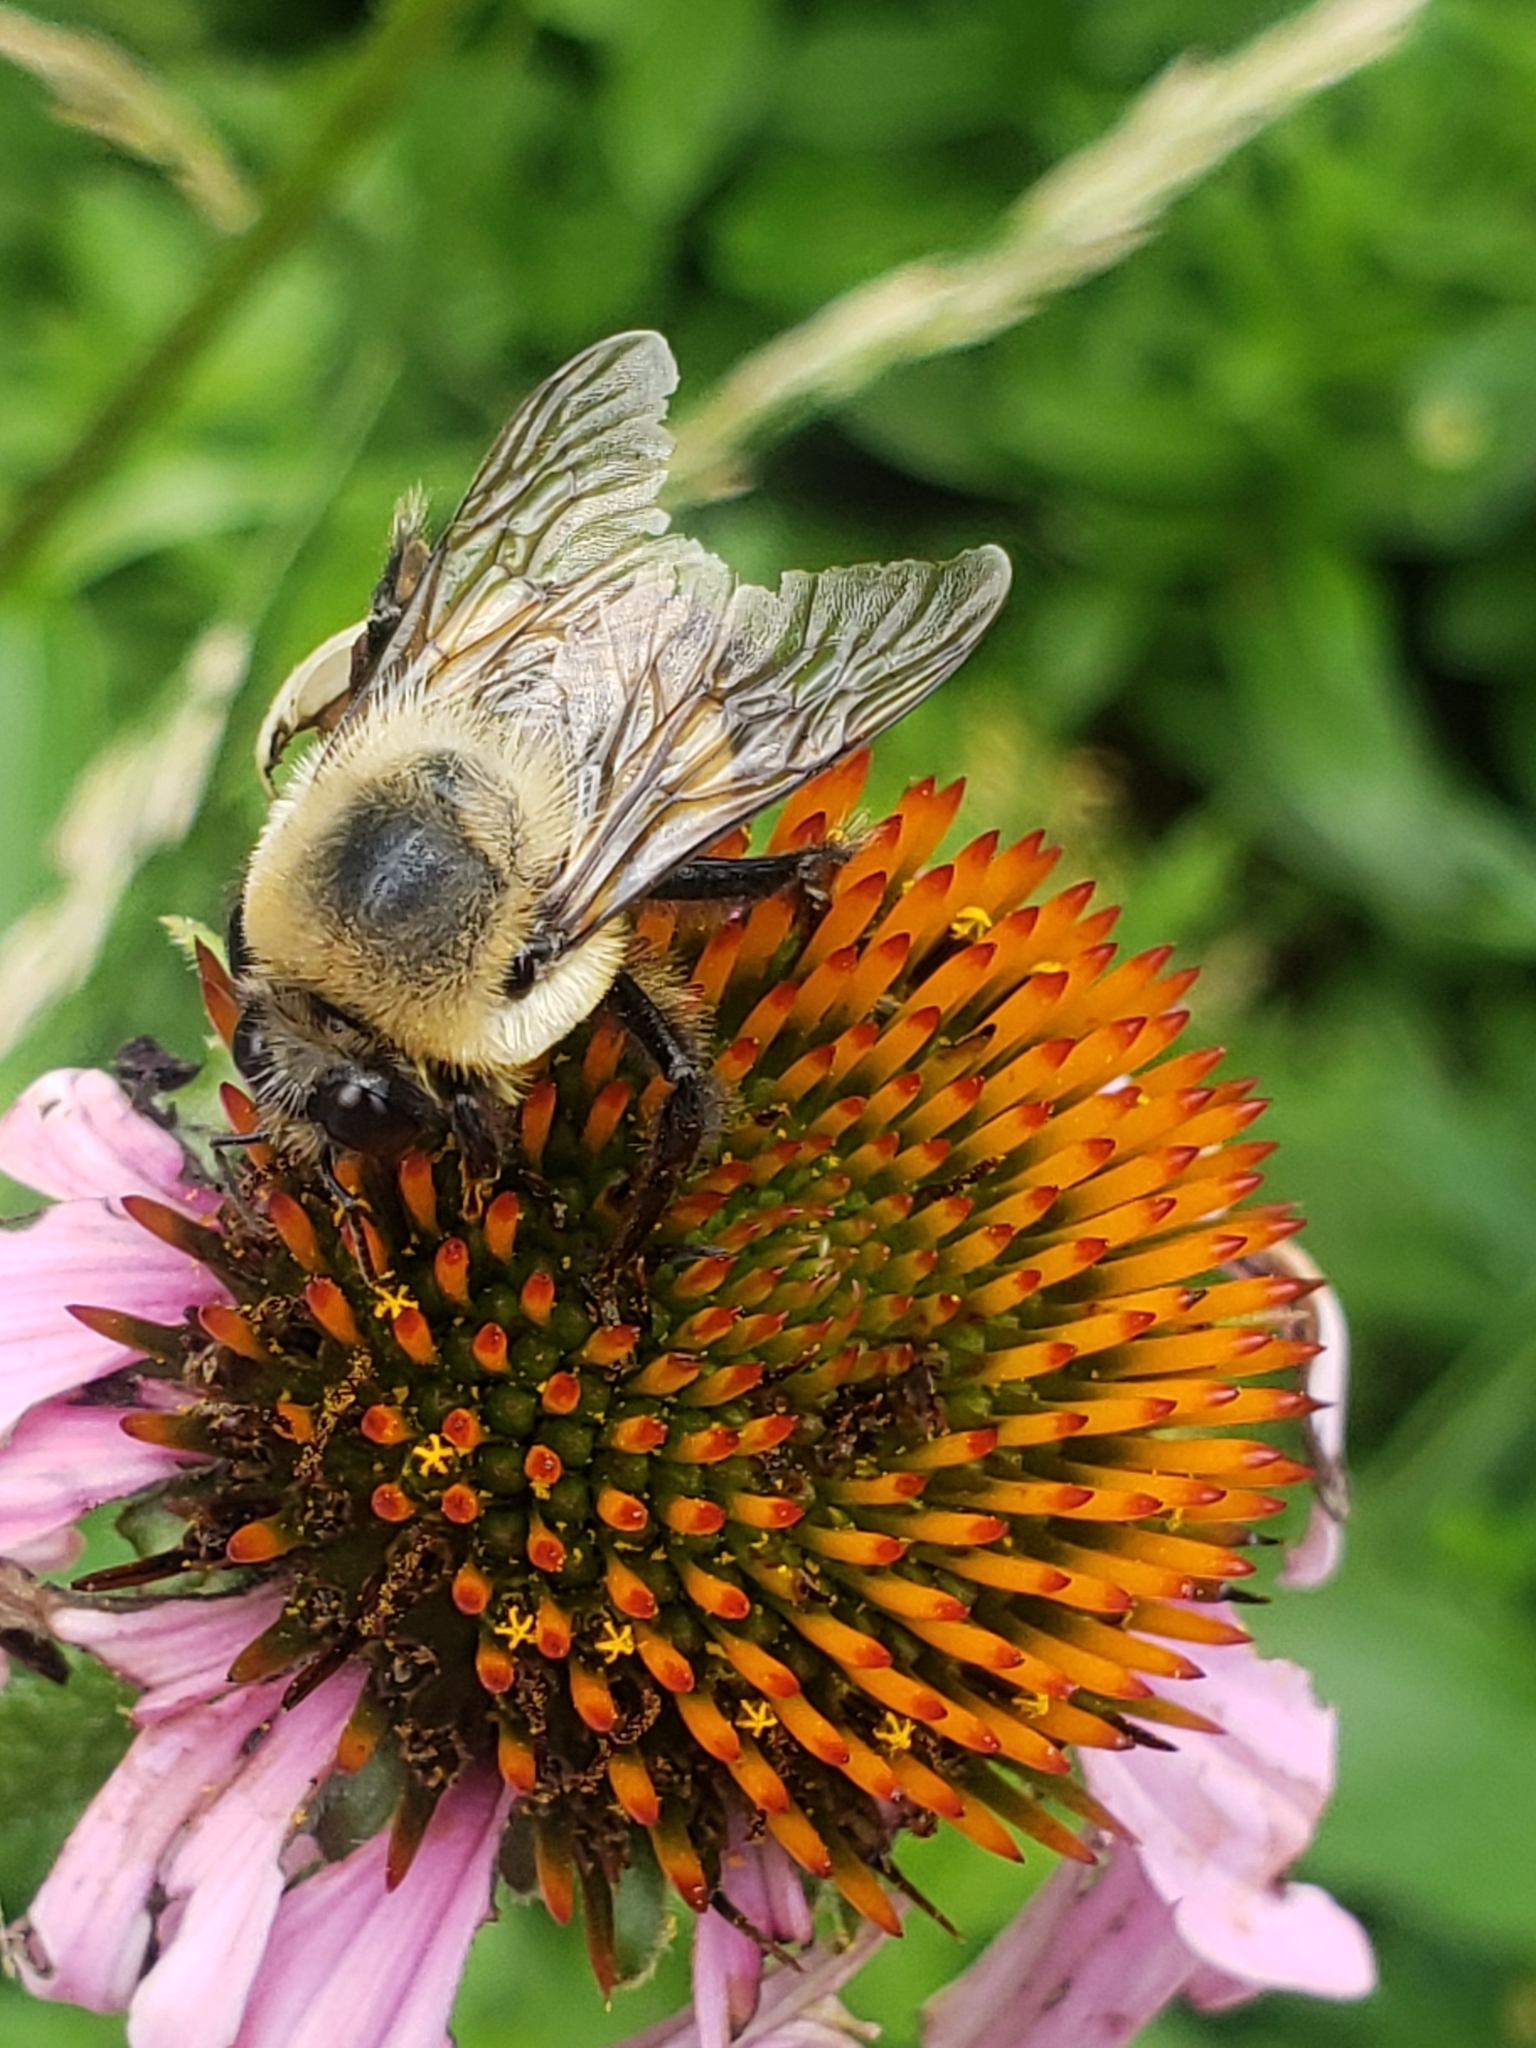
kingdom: Animalia
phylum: Arthropoda
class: Insecta
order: Hymenoptera
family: Apidae
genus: Bombus
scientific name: Bombus griseocollis
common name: Brown-belted bumble bee
